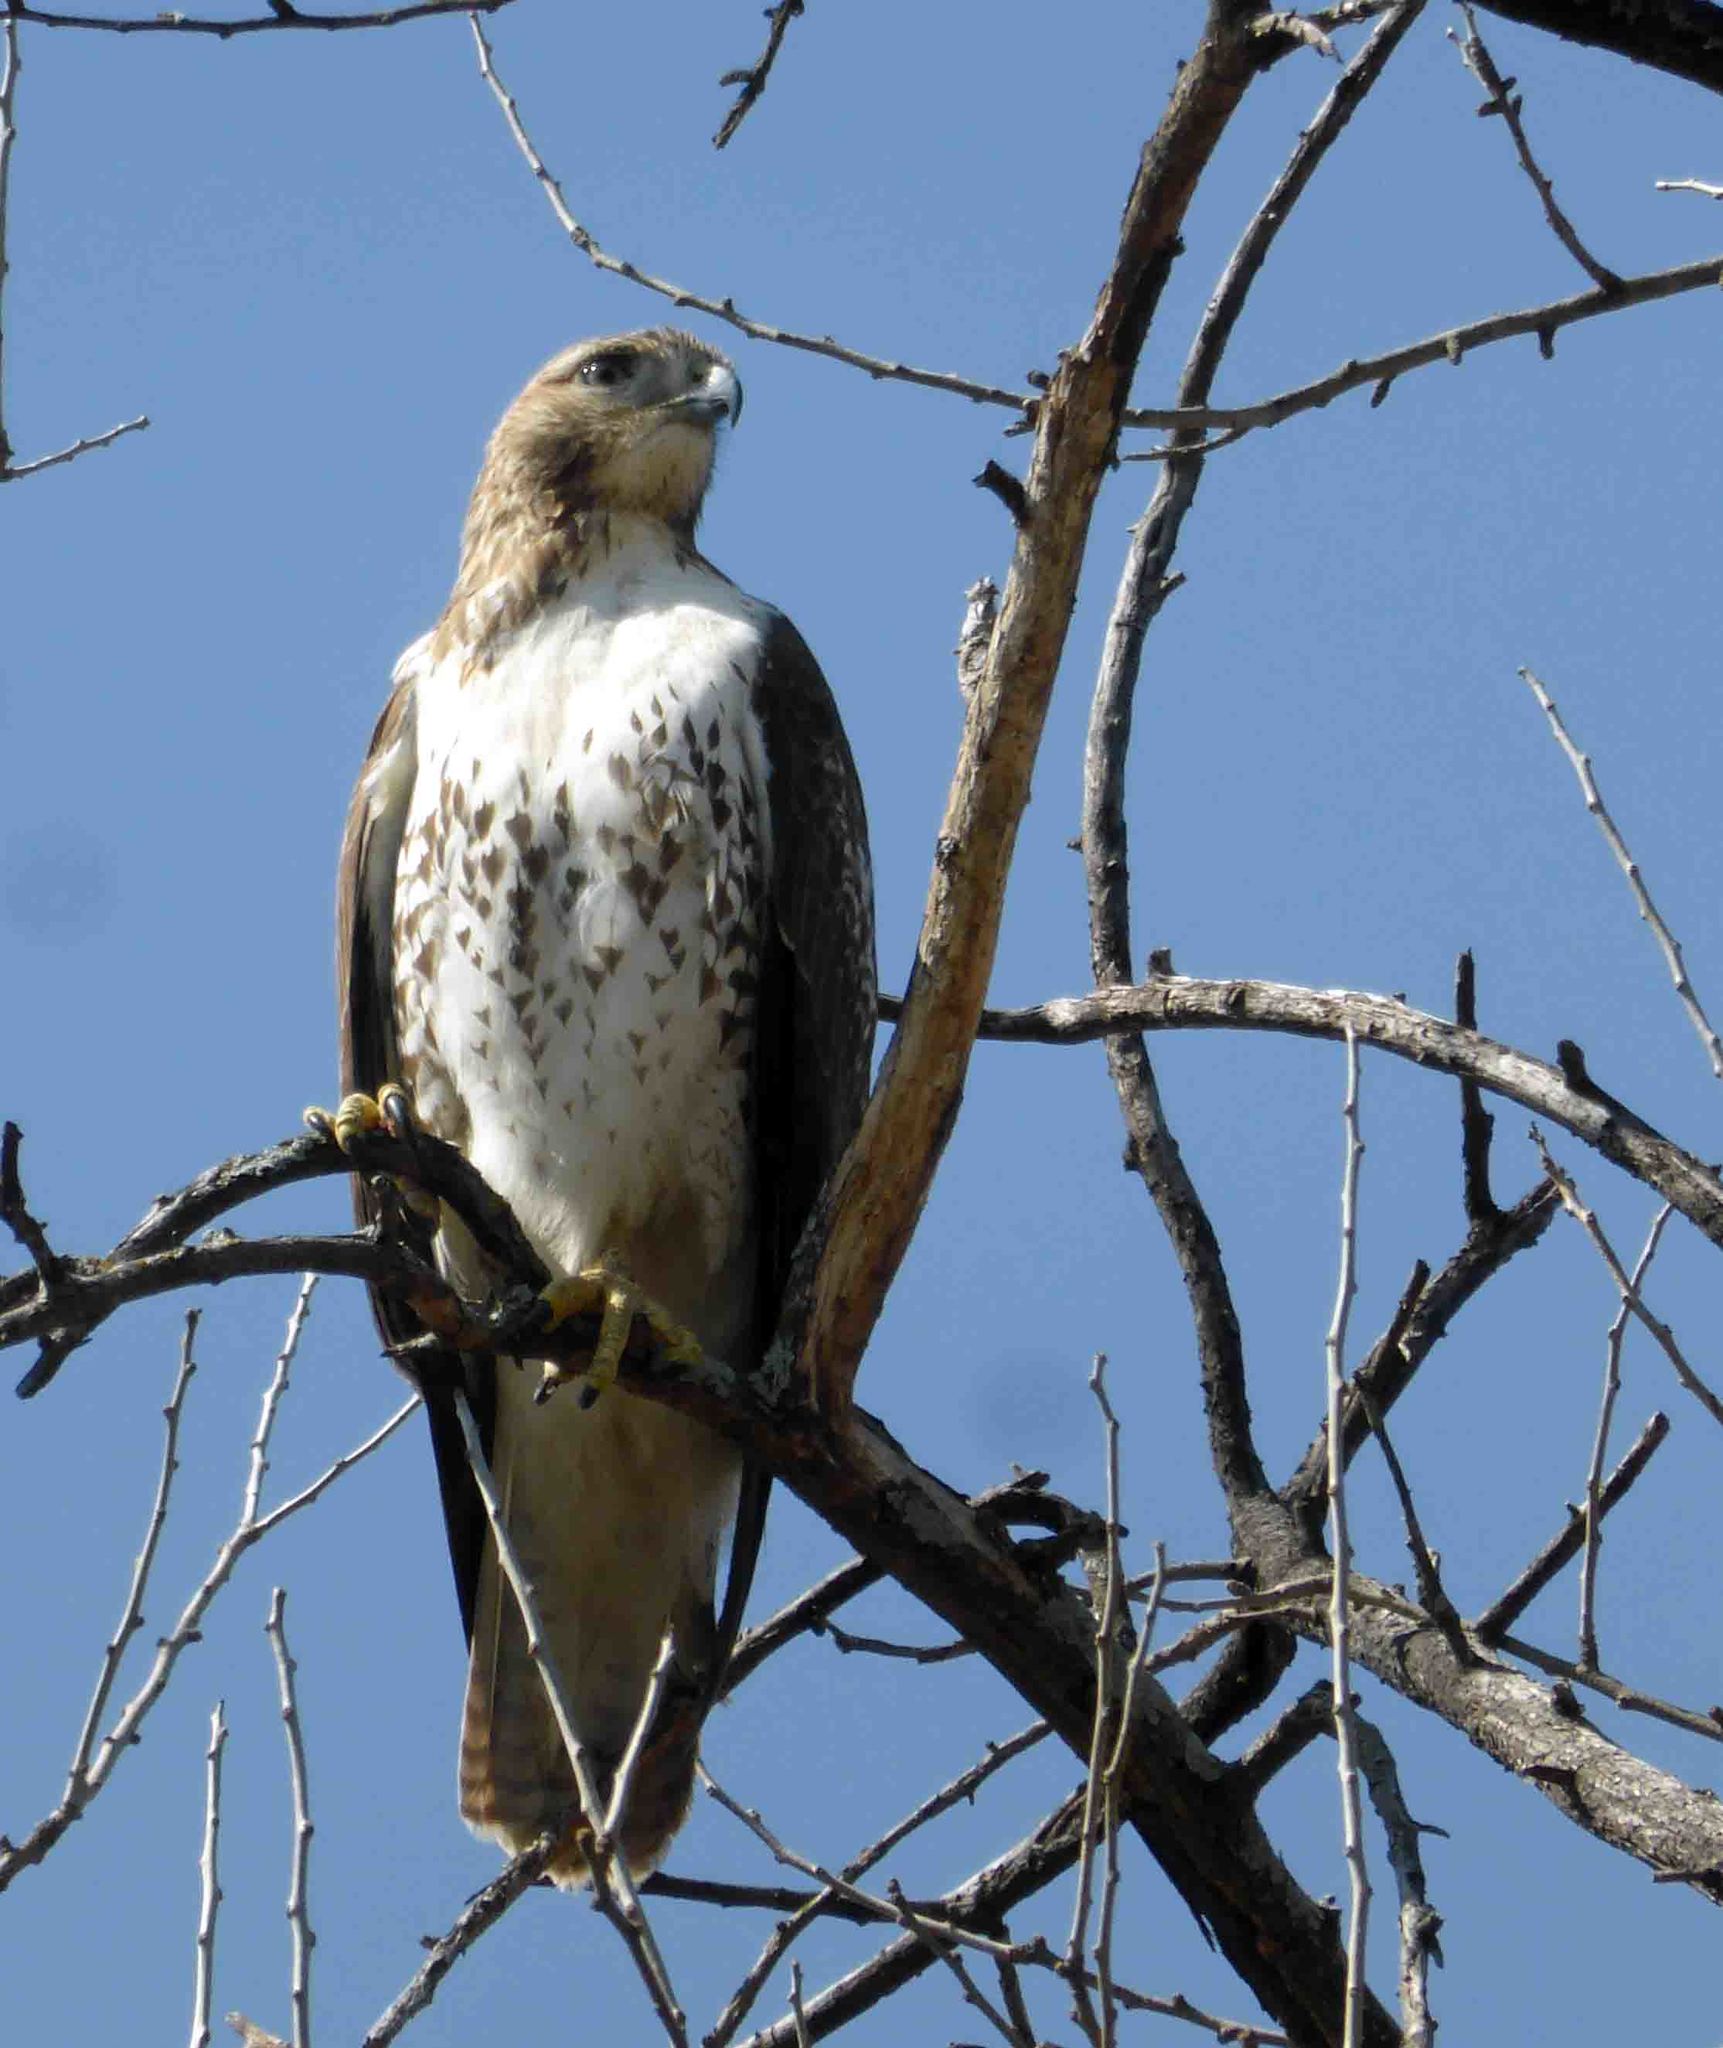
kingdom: Animalia
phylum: Chordata
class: Aves
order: Accipitriformes
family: Accipitridae
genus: Buteo
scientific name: Buteo jamaicensis
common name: Red-tailed hawk
